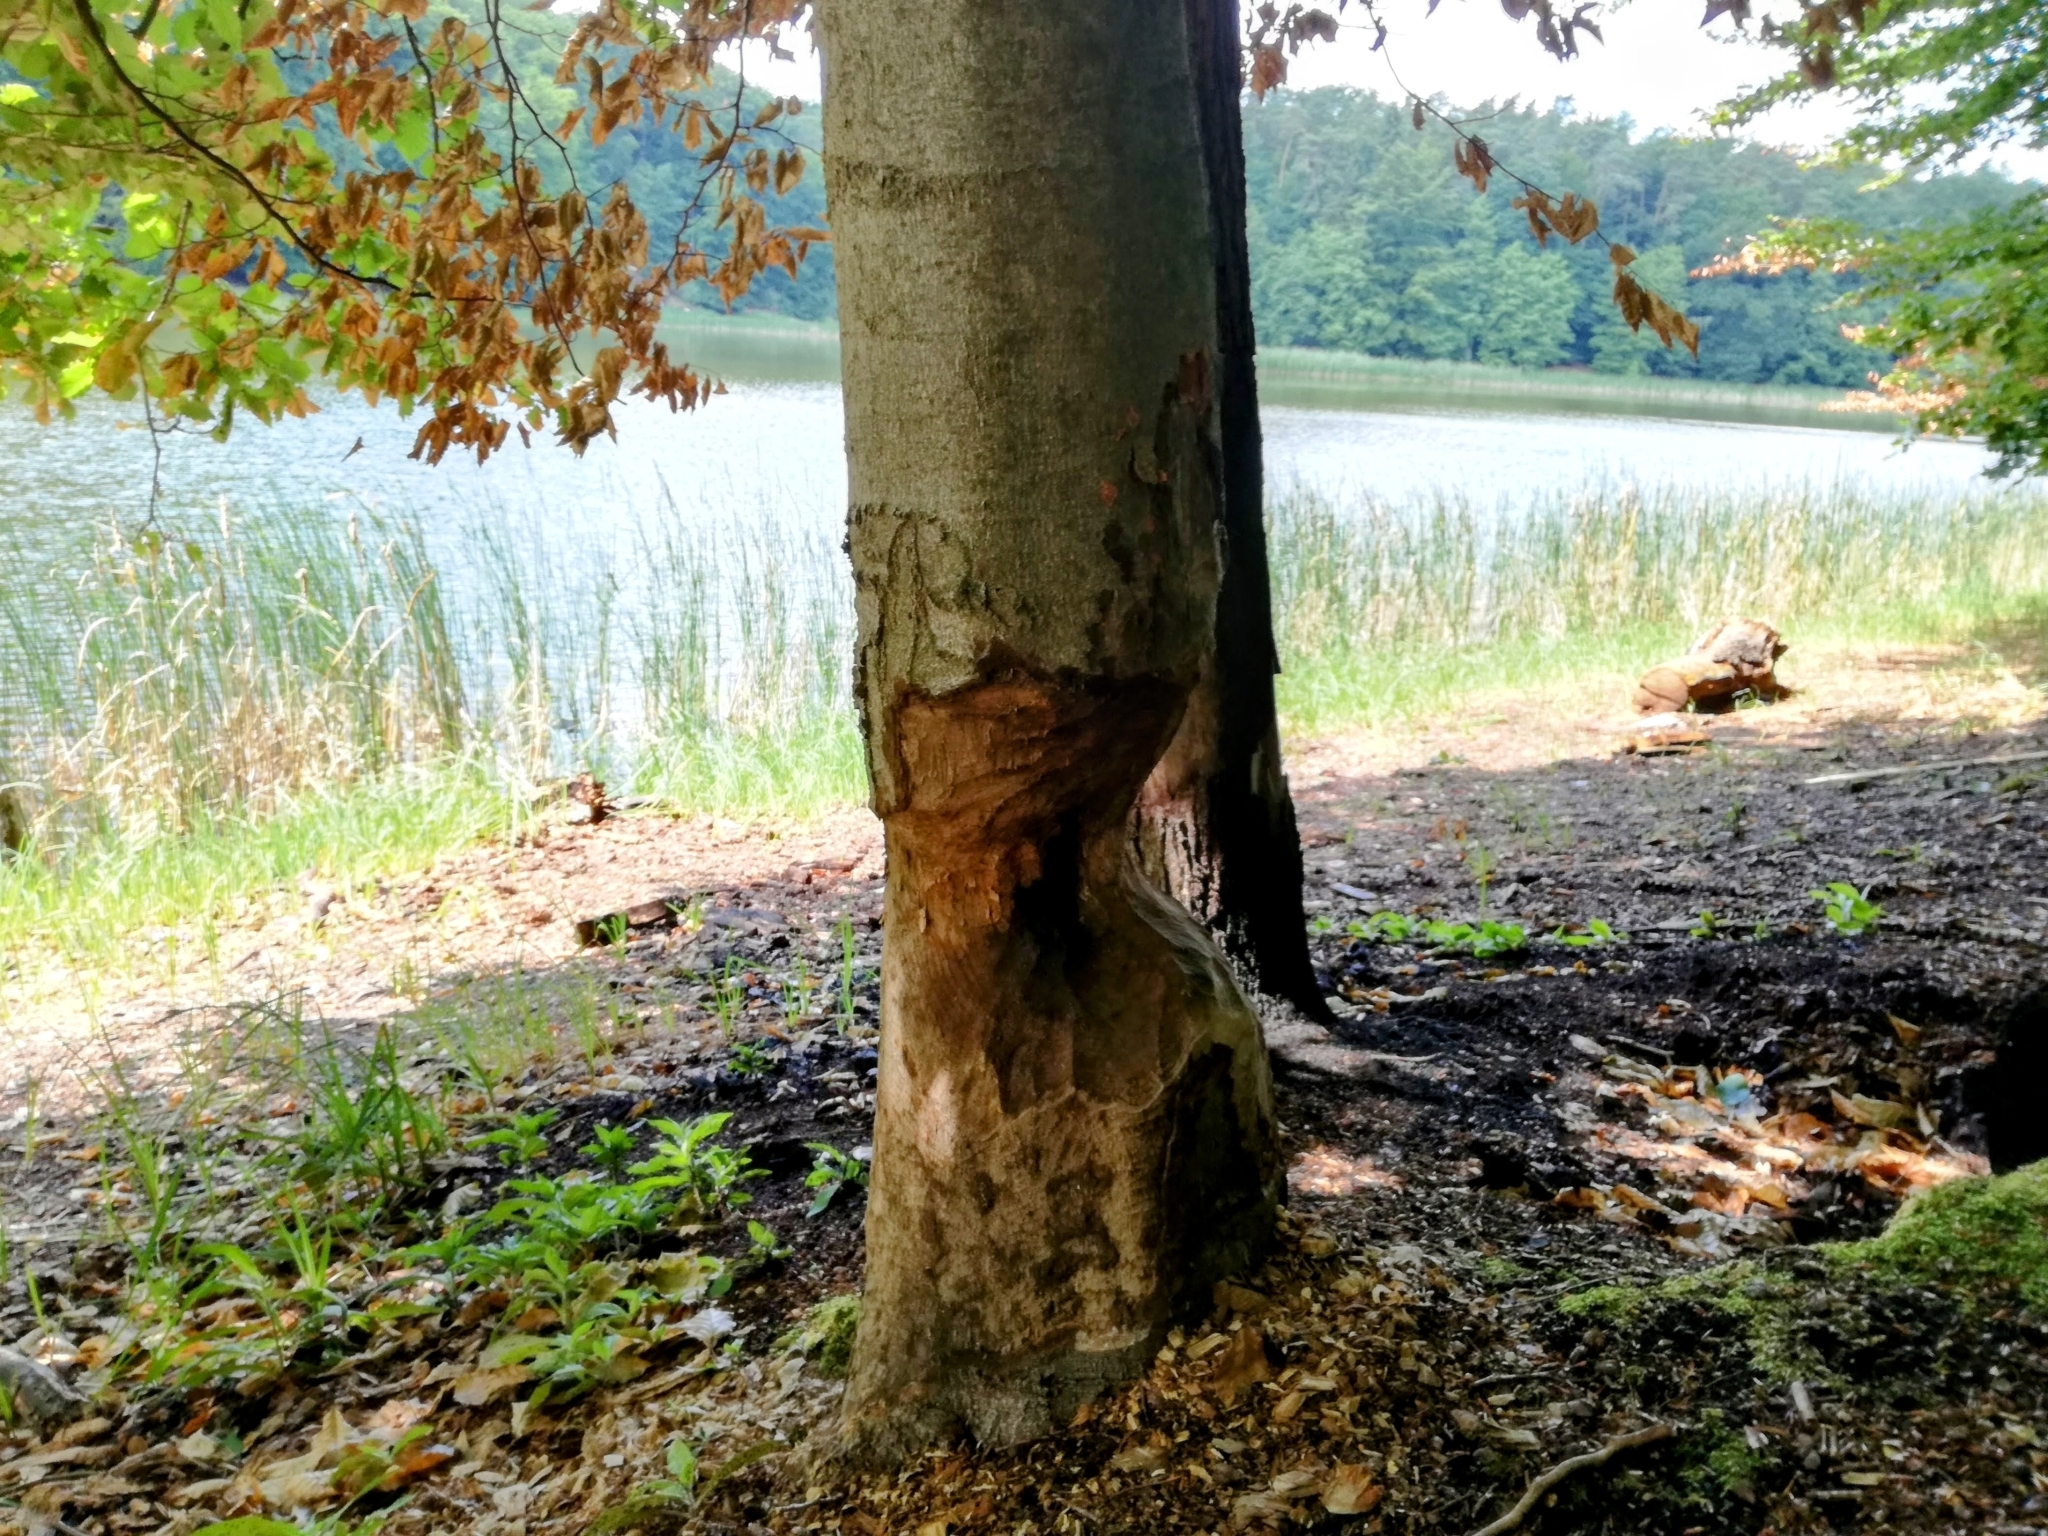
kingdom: Animalia
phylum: Chordata
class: Mammalia
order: Rodentia
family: Castoridae
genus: Castor
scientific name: Castor fiber
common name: Eurasian beaver
